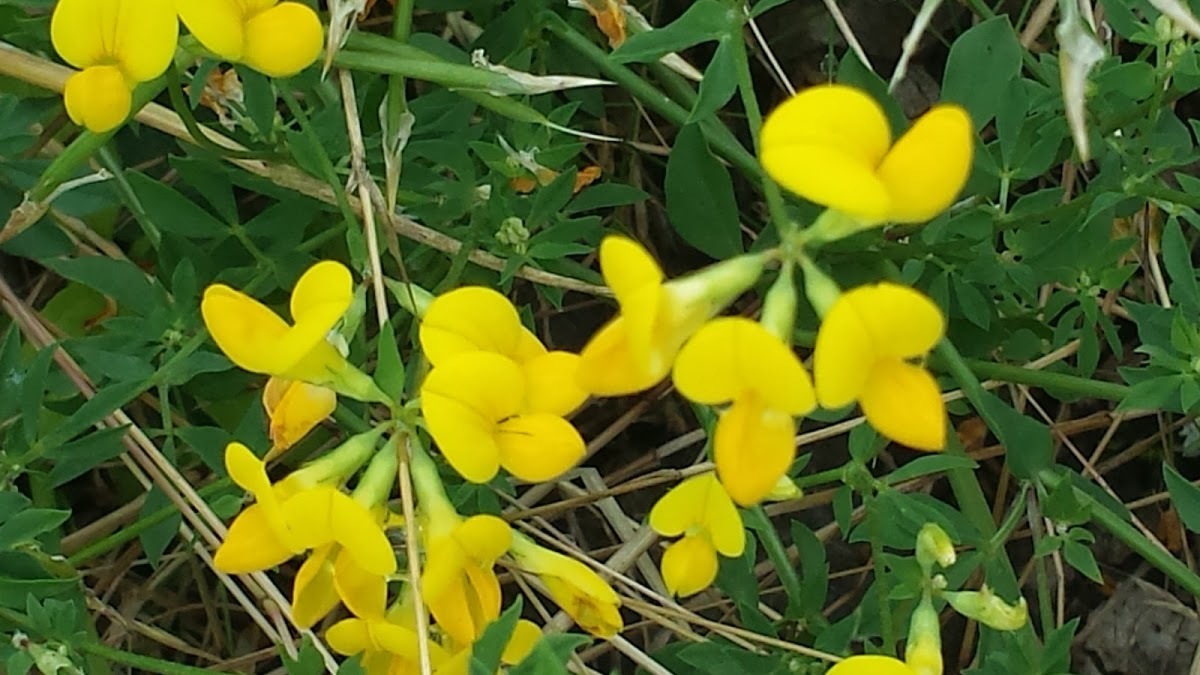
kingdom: Plantae
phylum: Tracheophyta
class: Magnoliopsida
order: Fabales
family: Fabaceae
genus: Lotus
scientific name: Lotus corniculatus
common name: Common bird's-foot-trefoil
